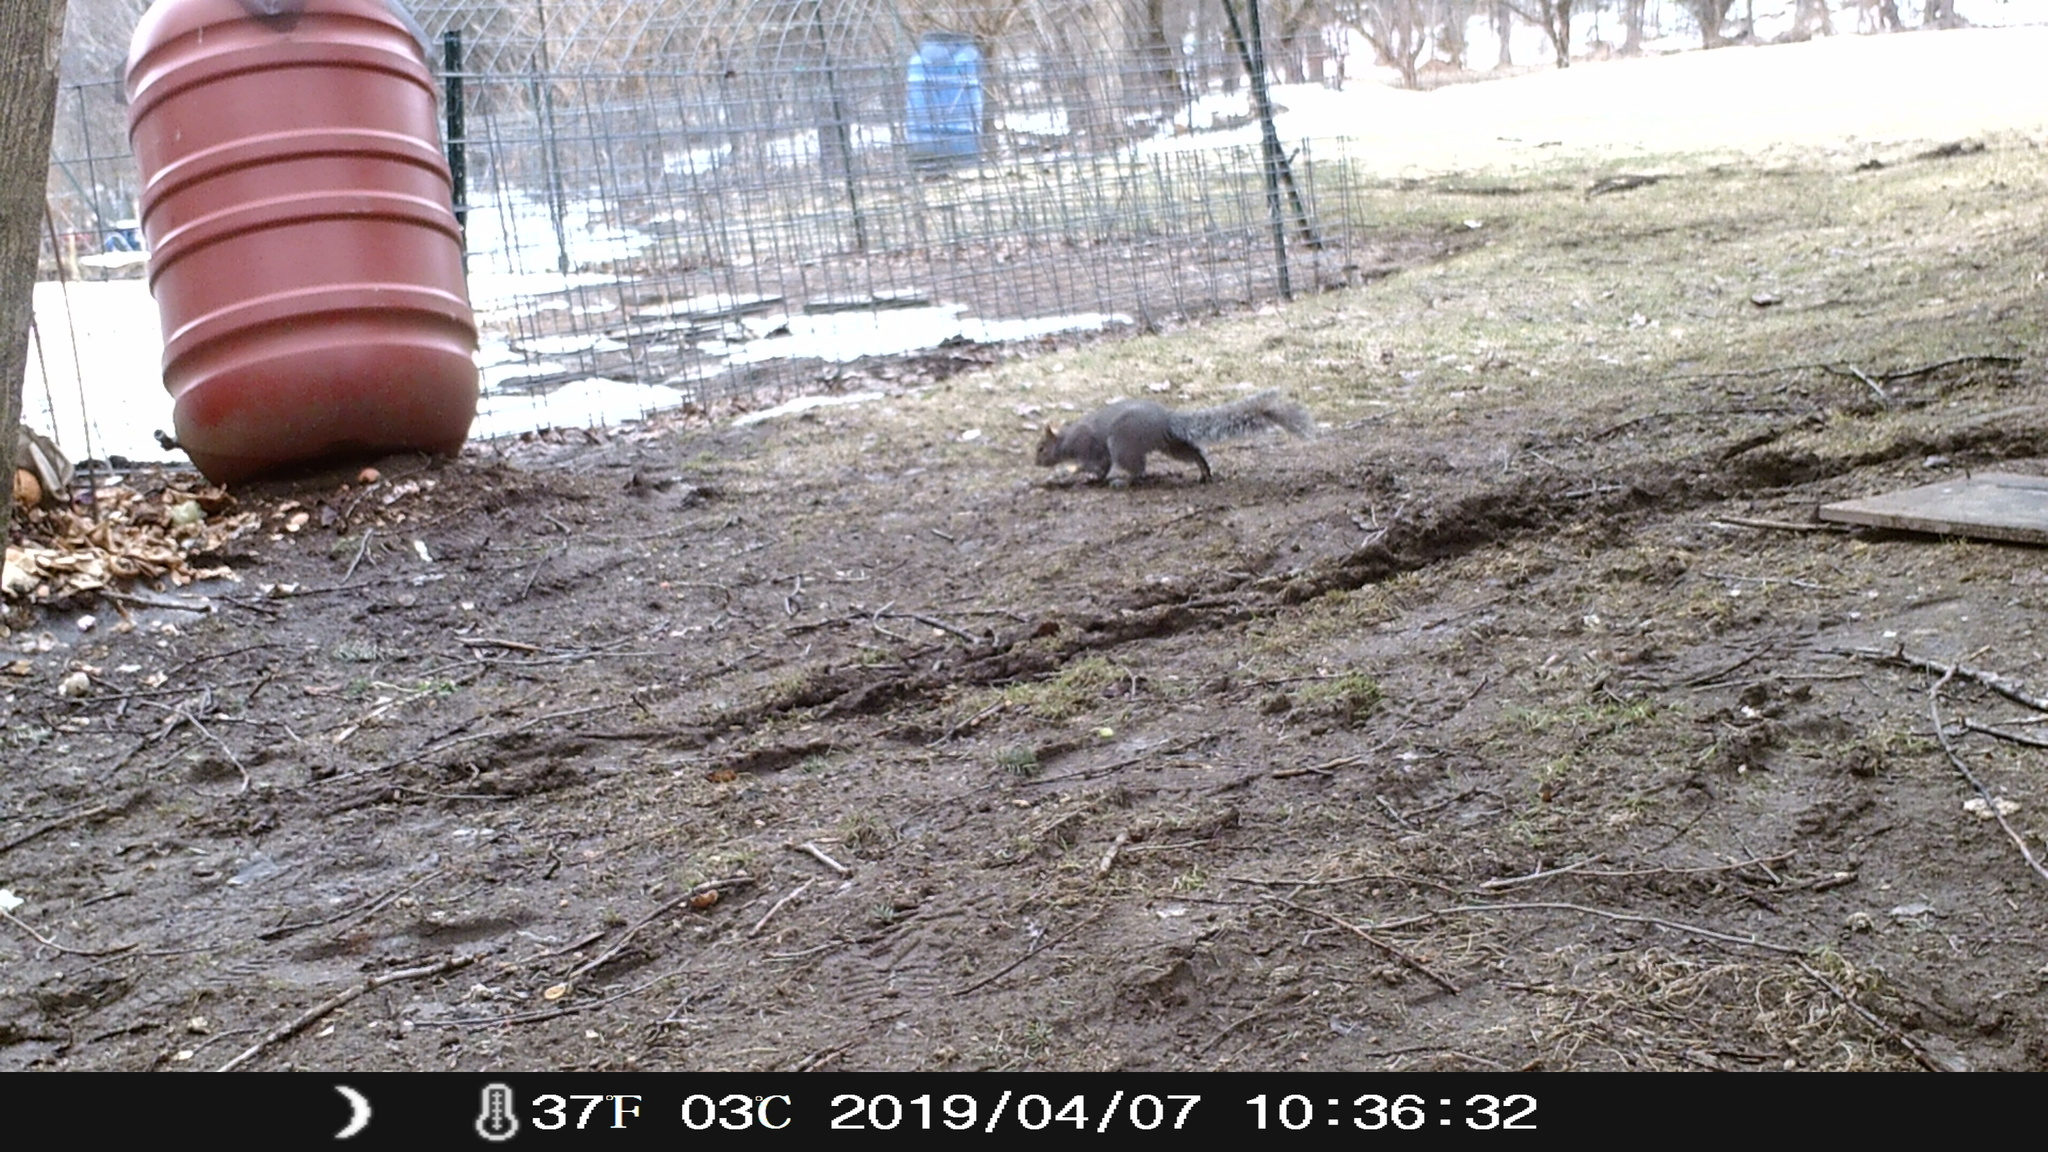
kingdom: Animalia
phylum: Chordata
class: Mammalia
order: Rodentia
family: Sciuridae
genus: Sciurus
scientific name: Sciurus carolinensis
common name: Eastern gray squirrel
